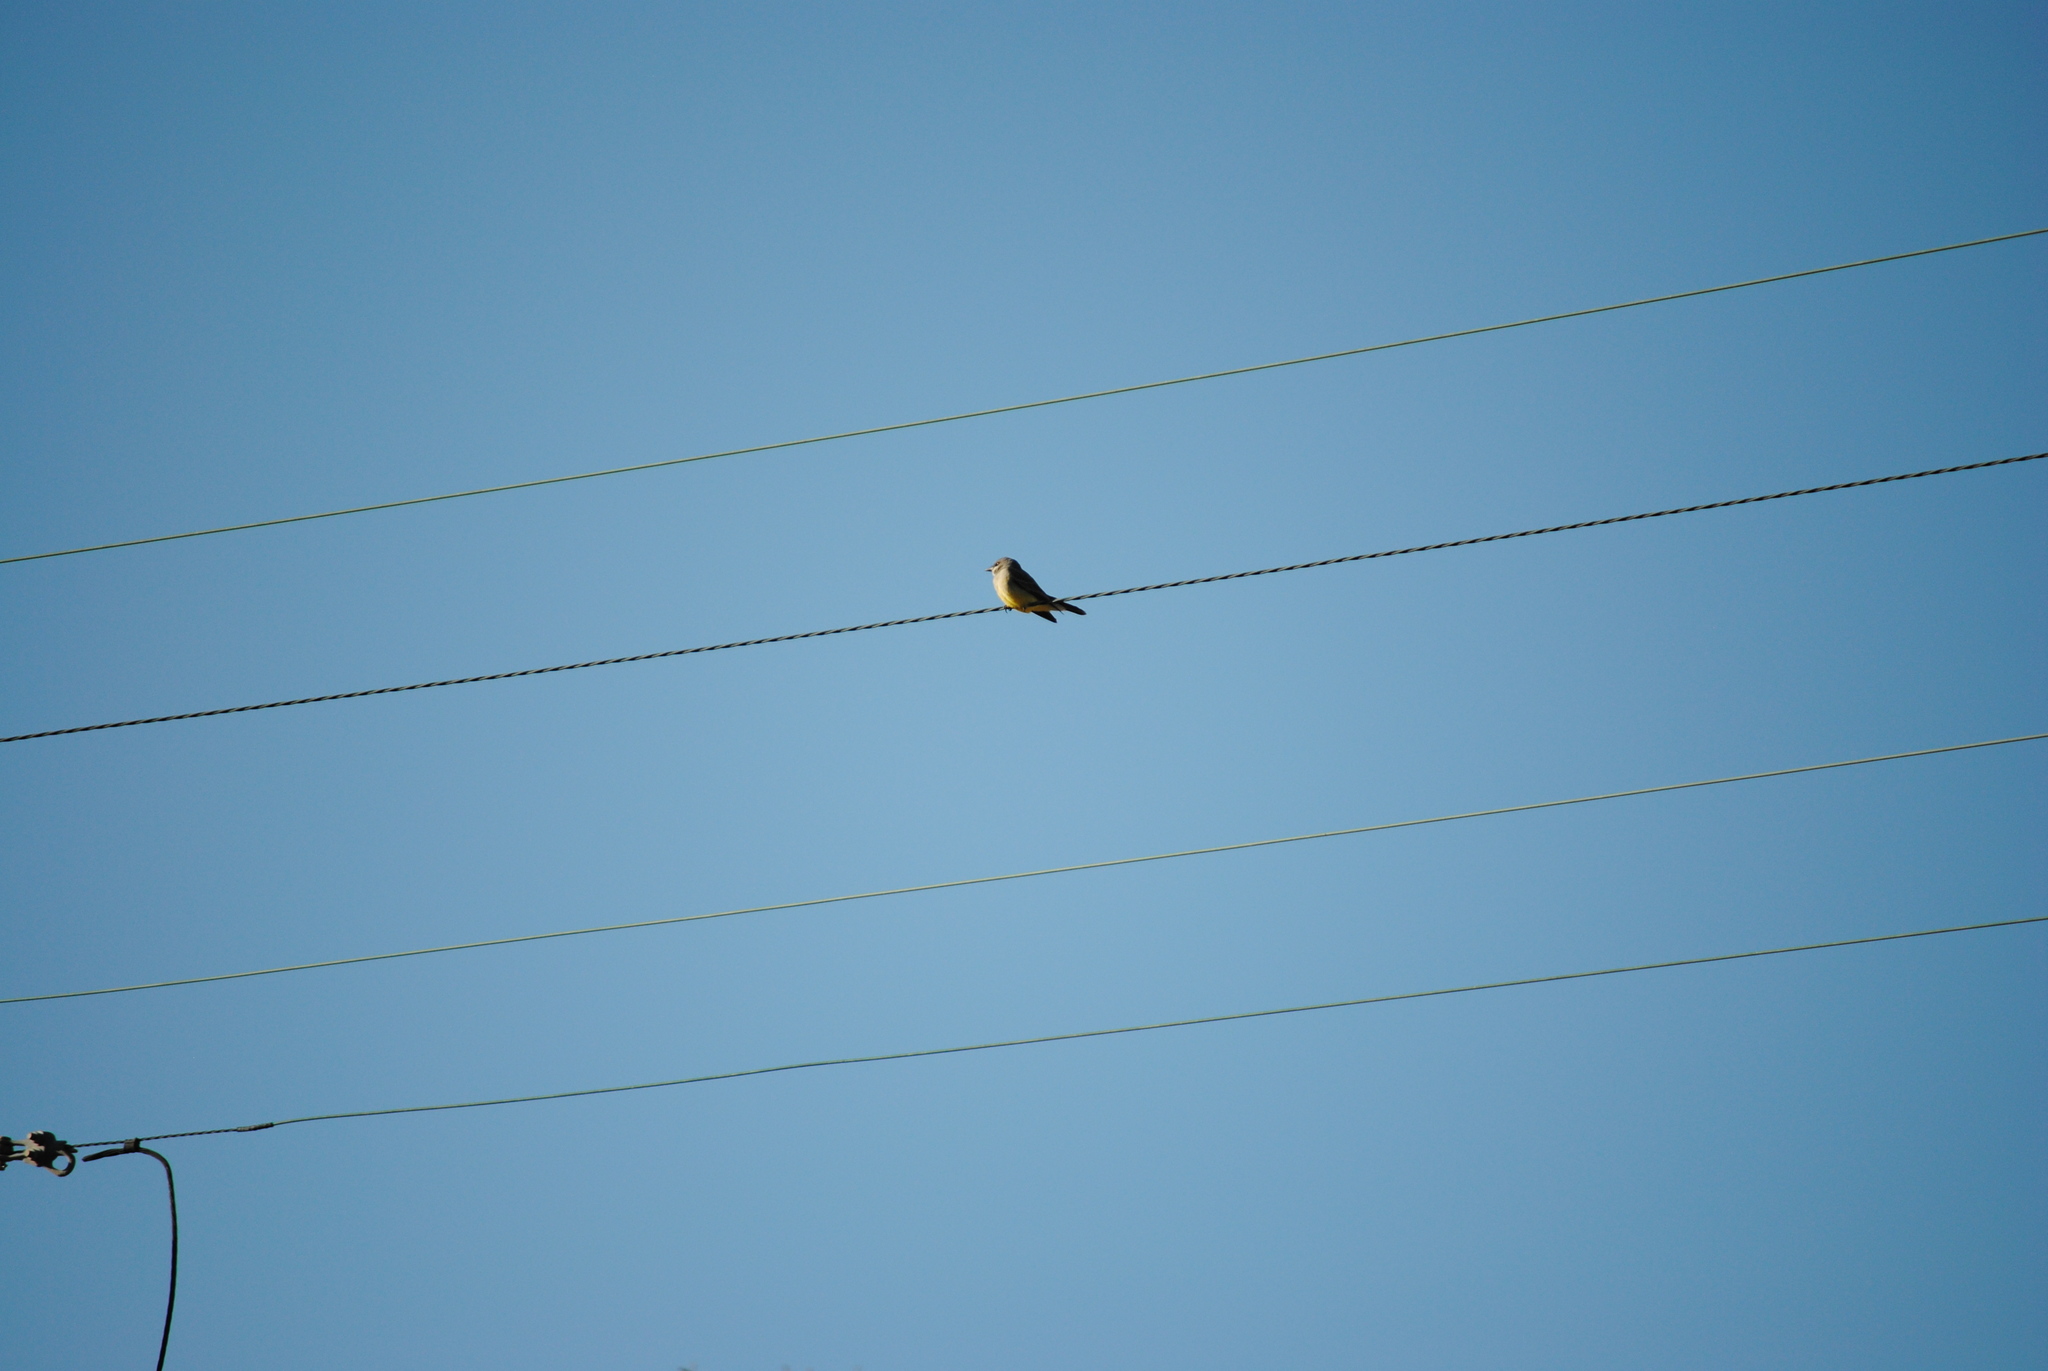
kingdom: Animalia
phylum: Chordata
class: Aves
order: Passeriformes
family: Tyrannidae
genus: Tyrannus
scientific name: Tyrannus vociferans
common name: Cassin's kingbird
